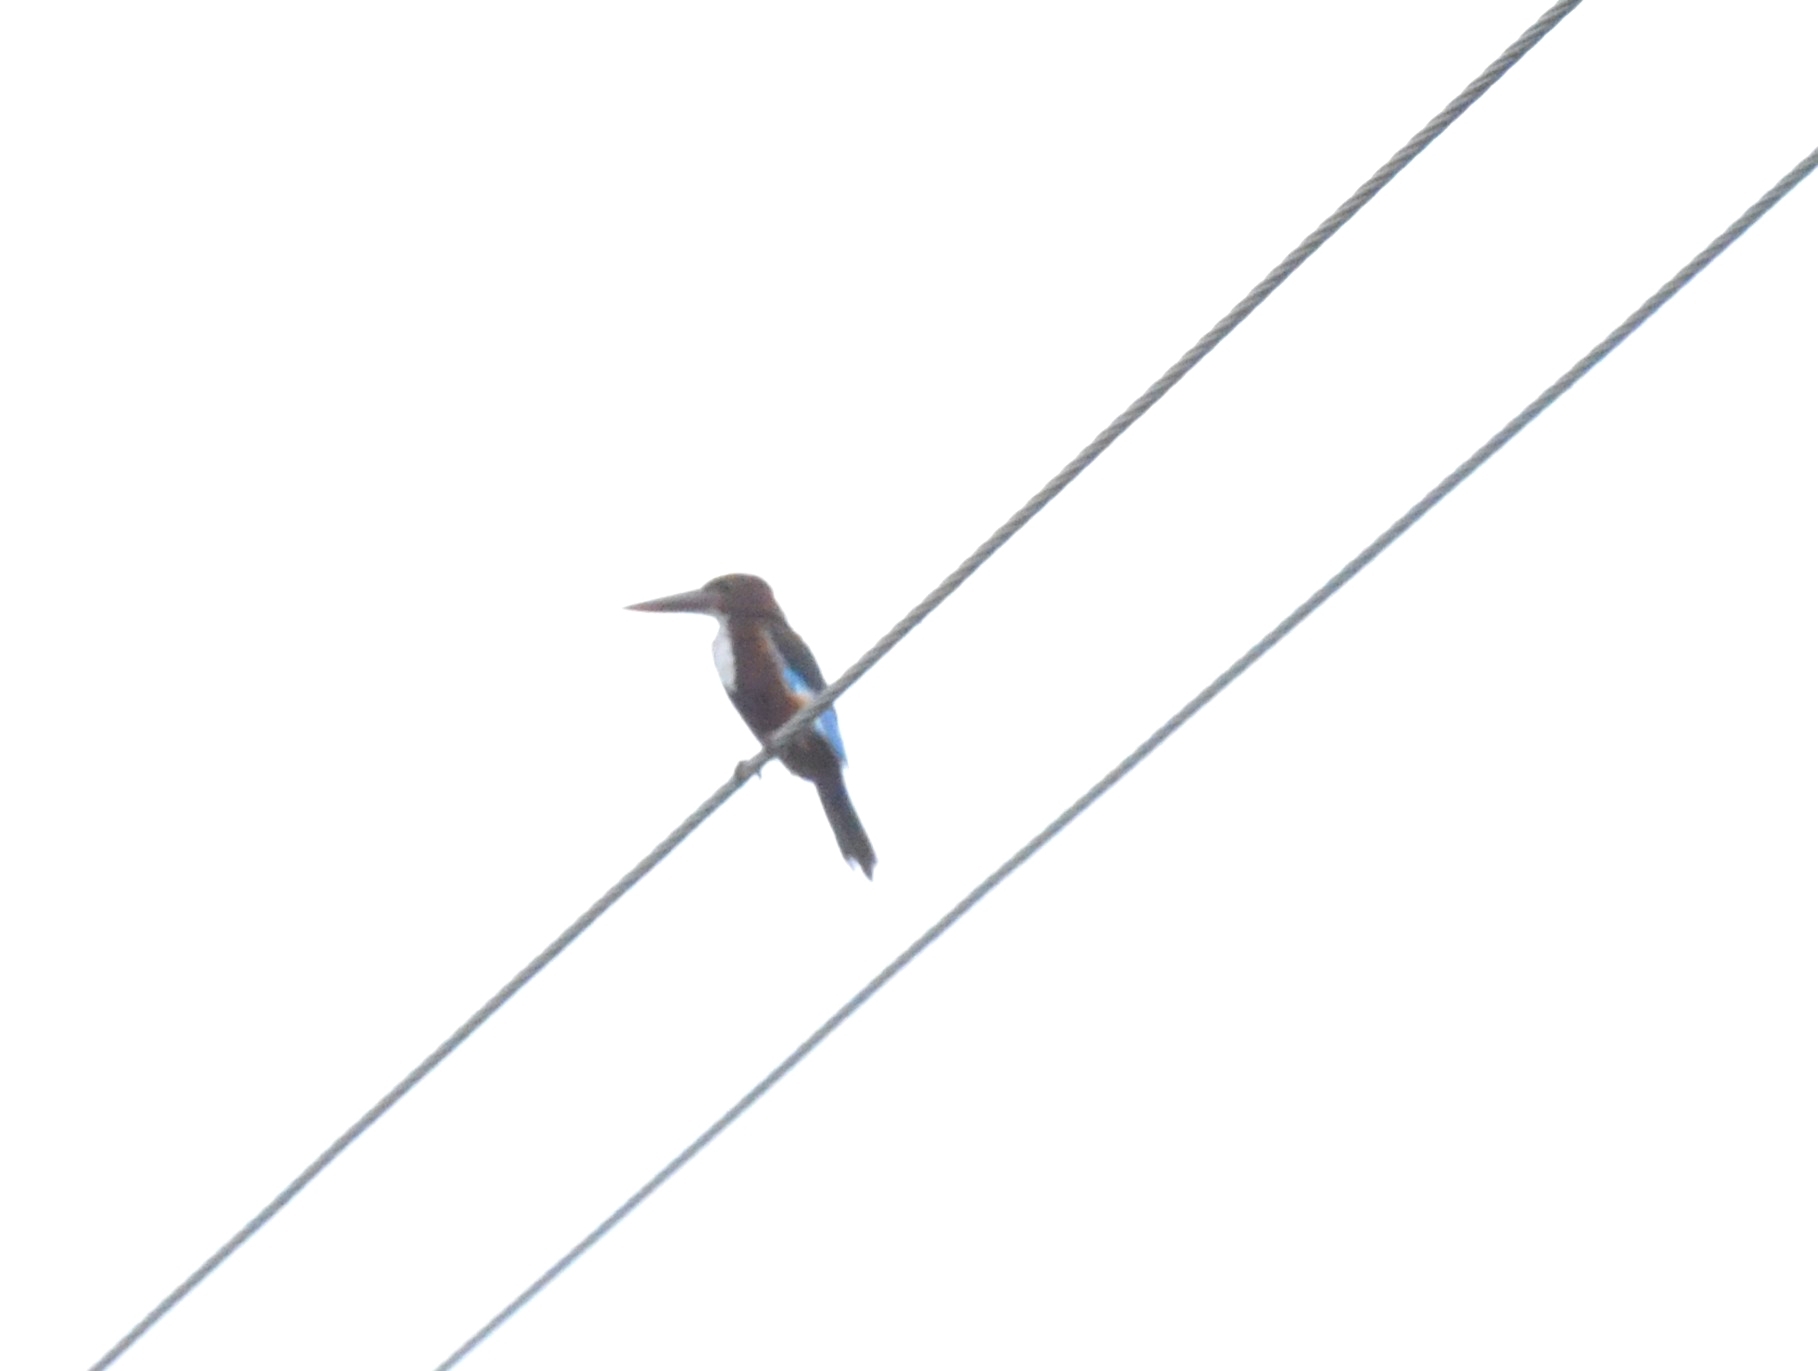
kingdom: Animalia
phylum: Chordata
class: Aves
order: Coraciiformes
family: Alcedinidae
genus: Halcyon
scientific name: Halcyon smyrnensis
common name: White-throated kingfisher
